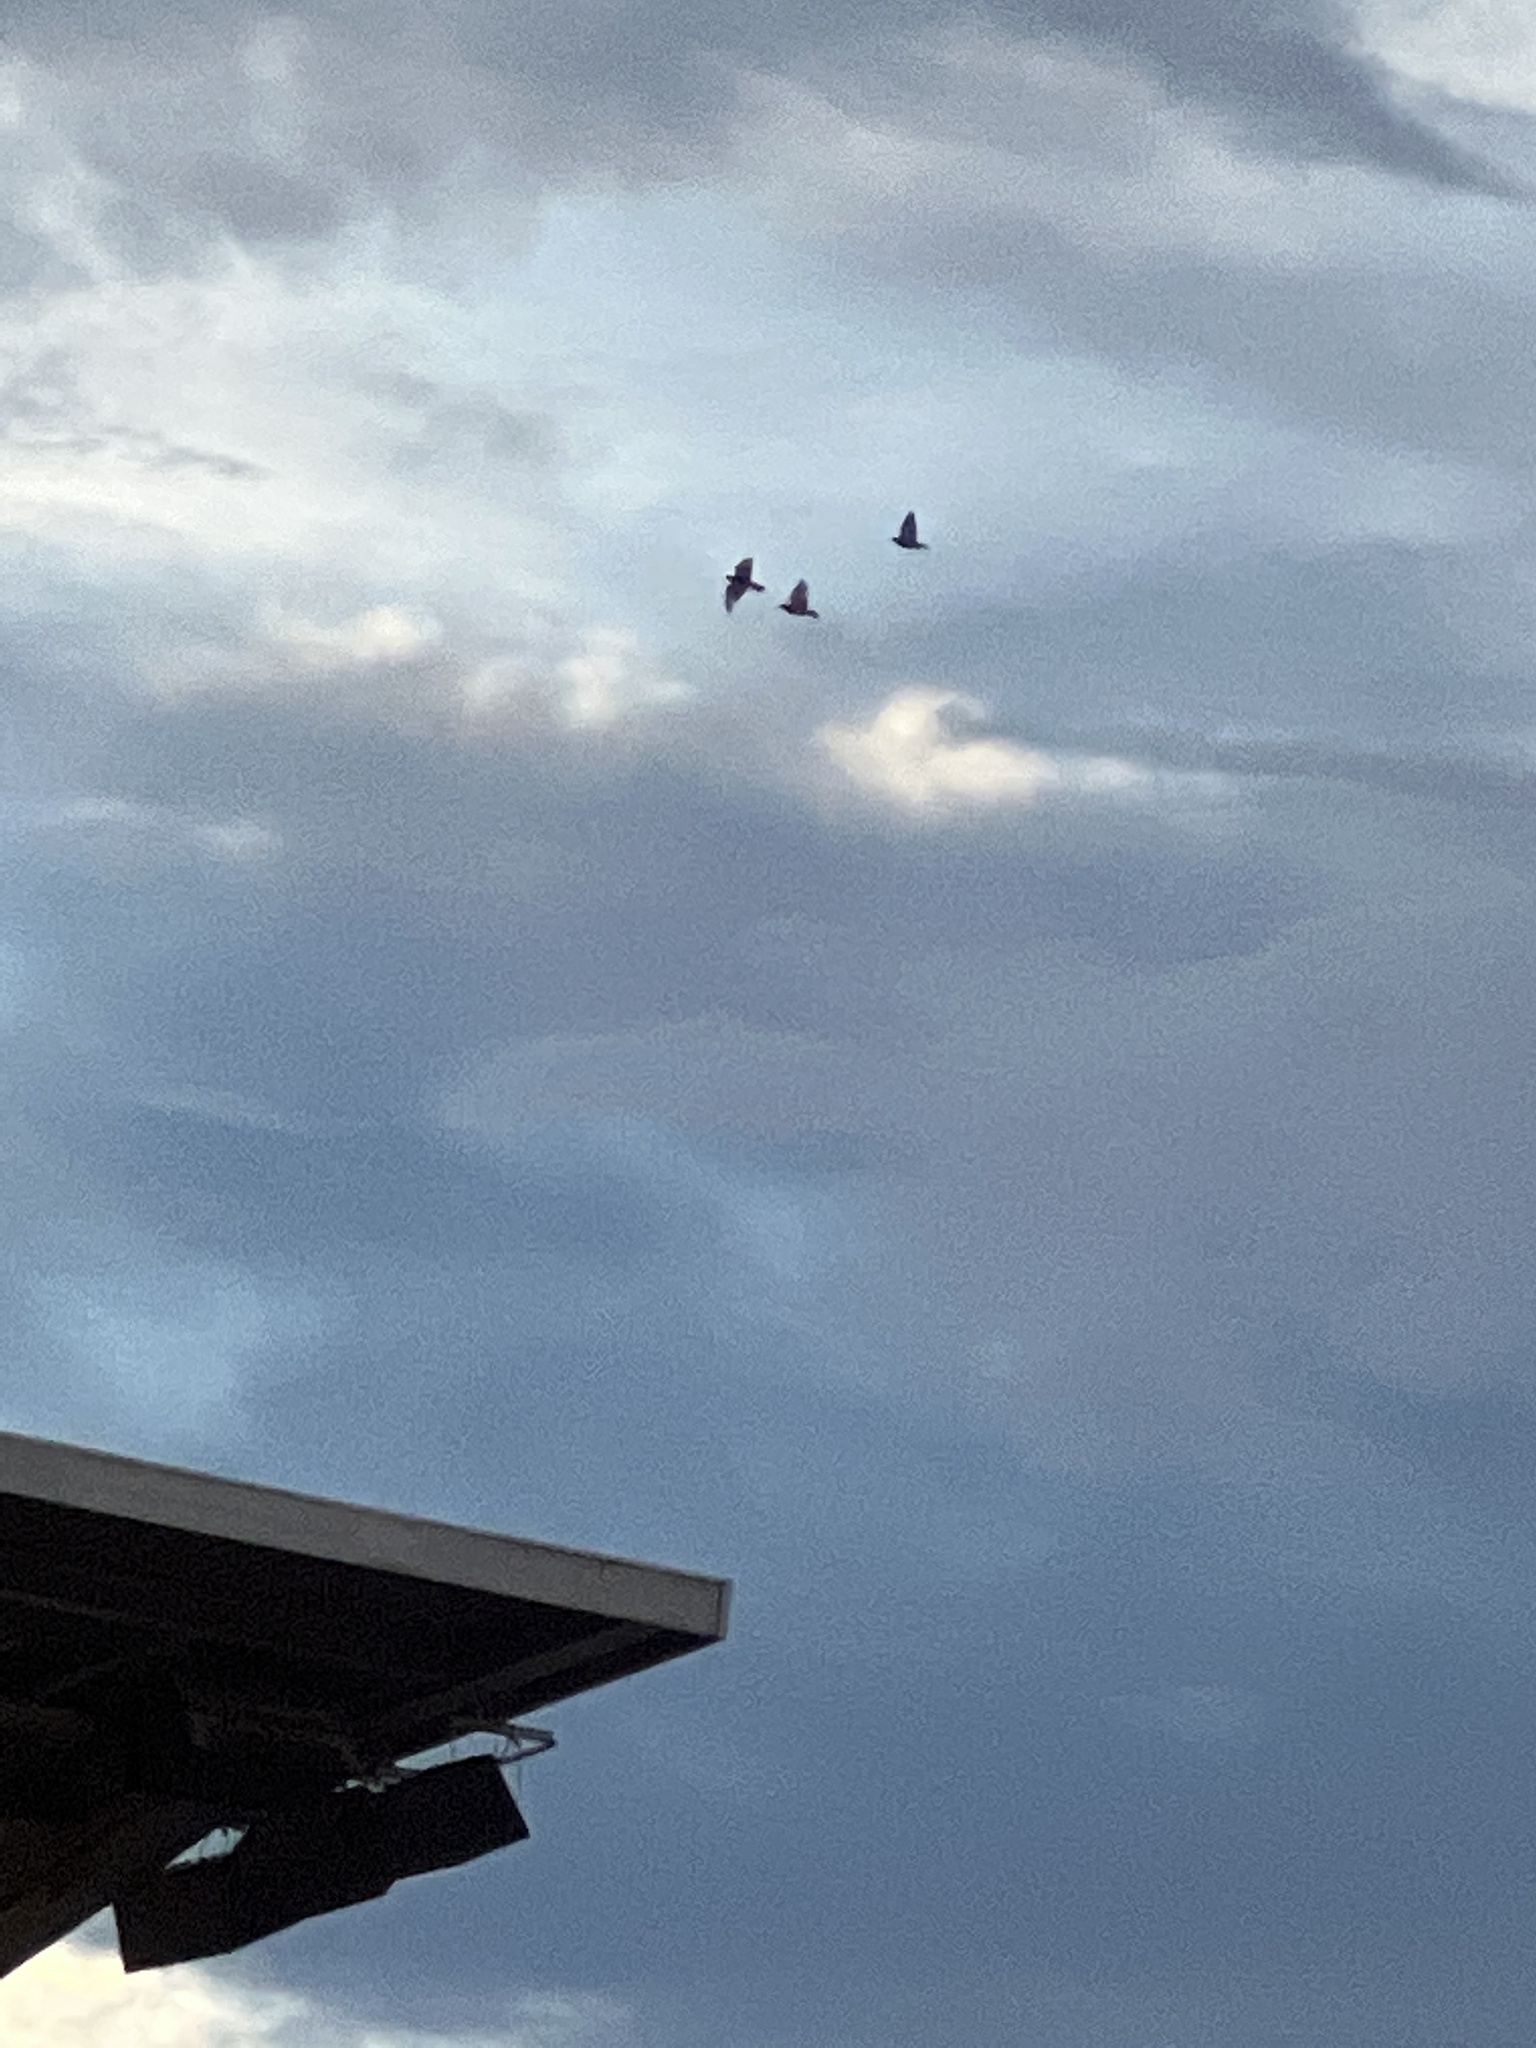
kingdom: Animalia
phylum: Chordata
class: Aves
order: Columbiformes
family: Columbidae
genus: Columba
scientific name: Columba livia
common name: Rock pigeon
